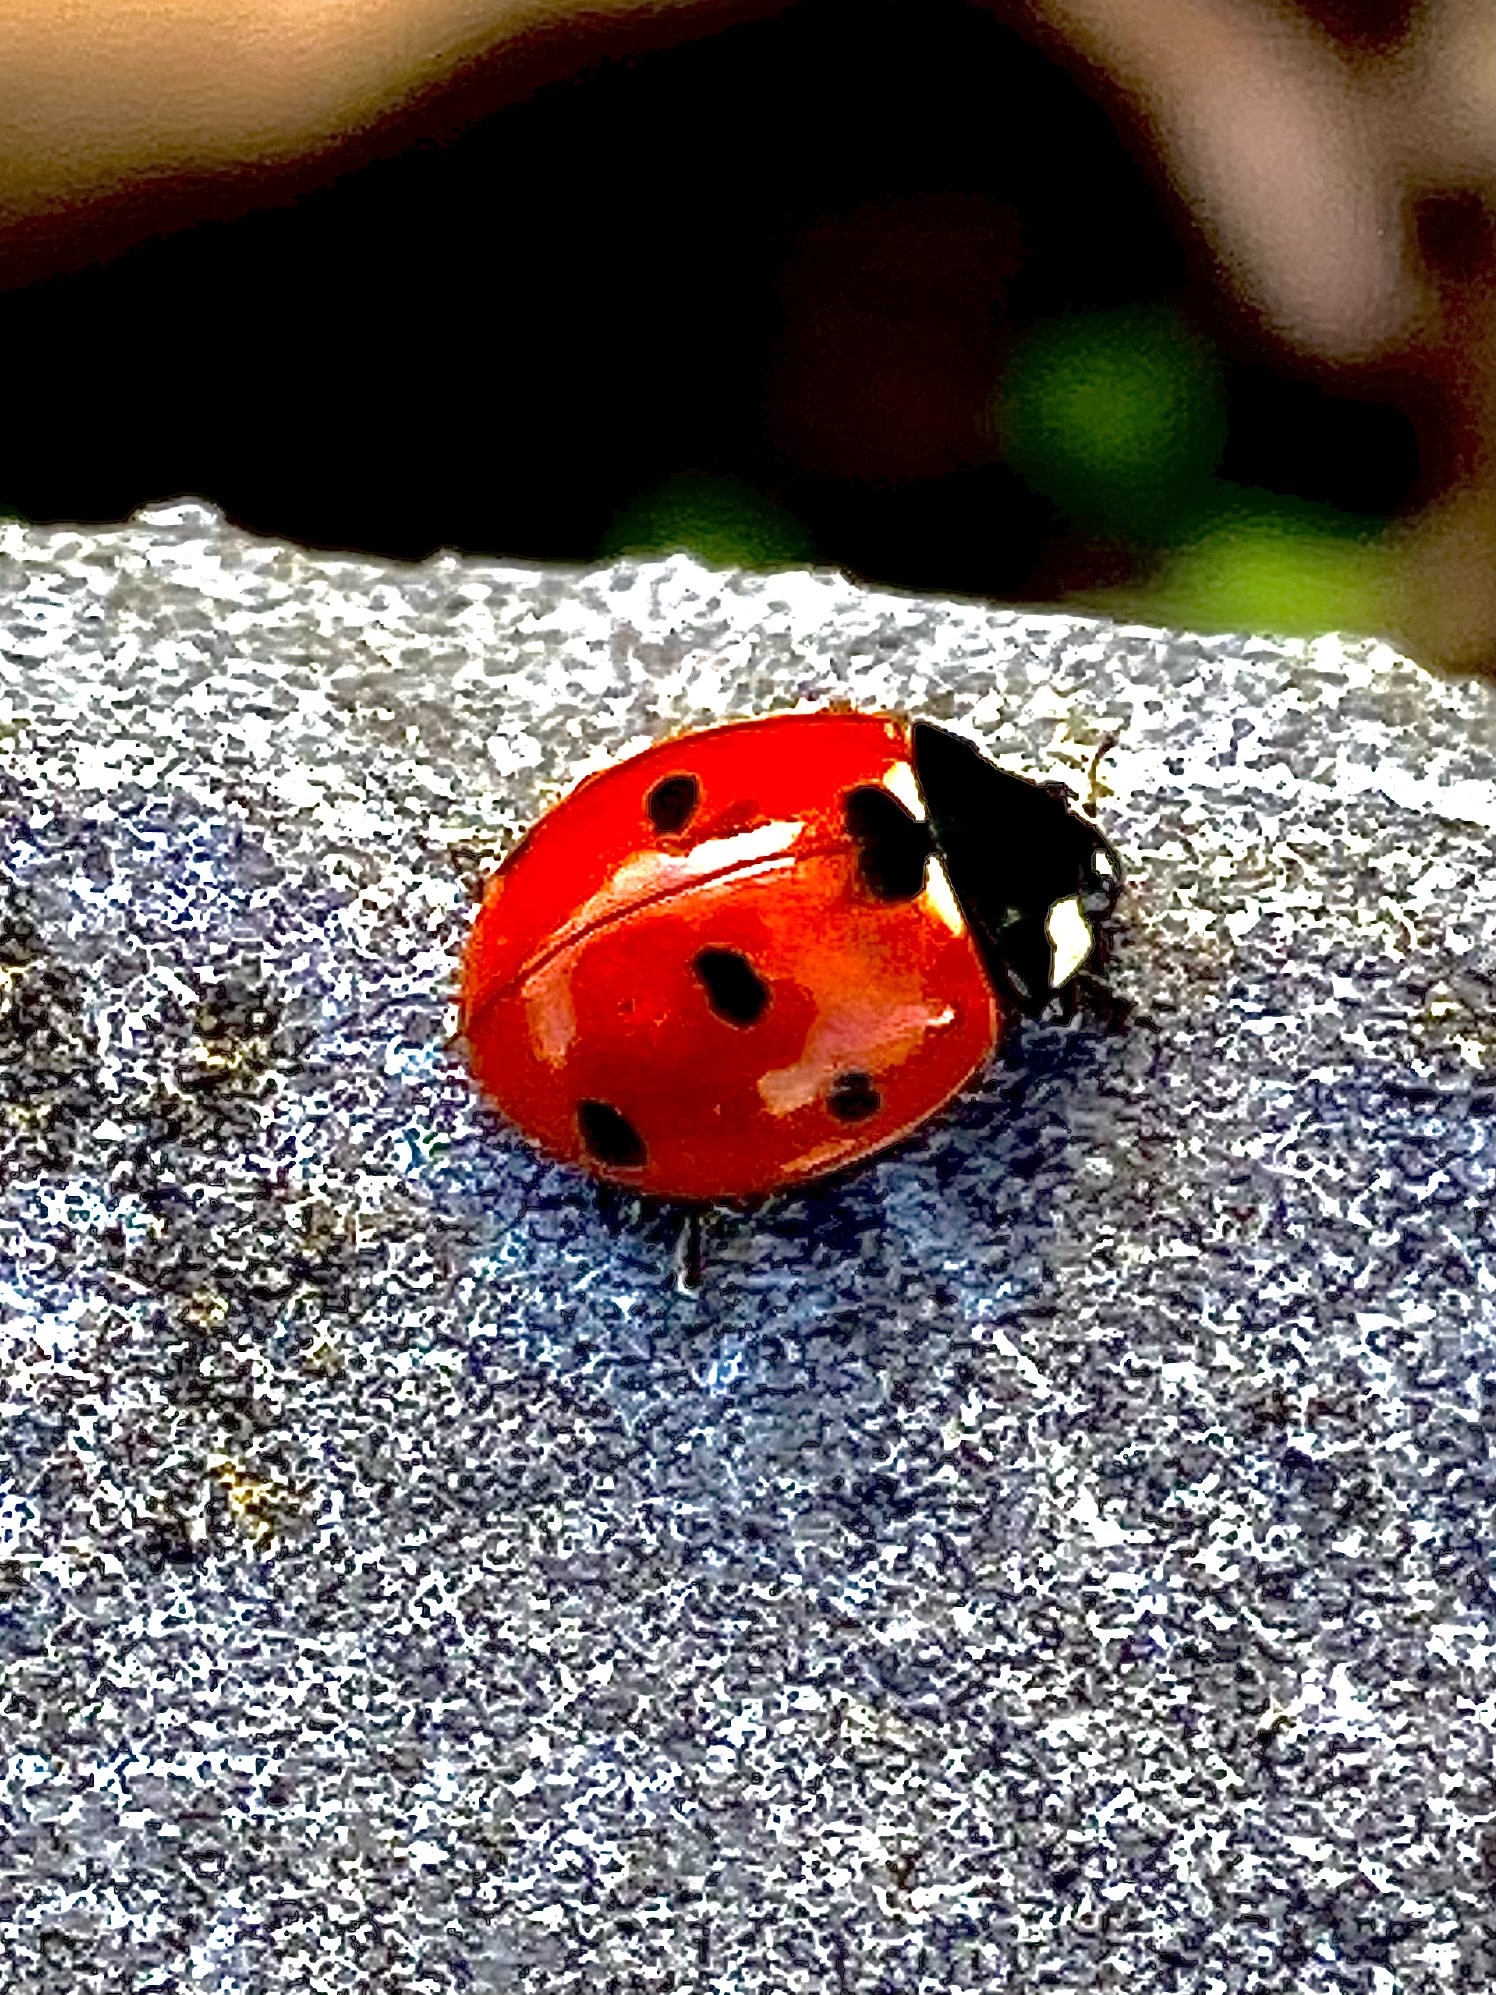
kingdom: Animalia
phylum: Arthropoda
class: Insecta
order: Coleoptera
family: Coccinellidae
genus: Coccinella
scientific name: Coccinella septempunctata
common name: Sevenspotted lady beetle
